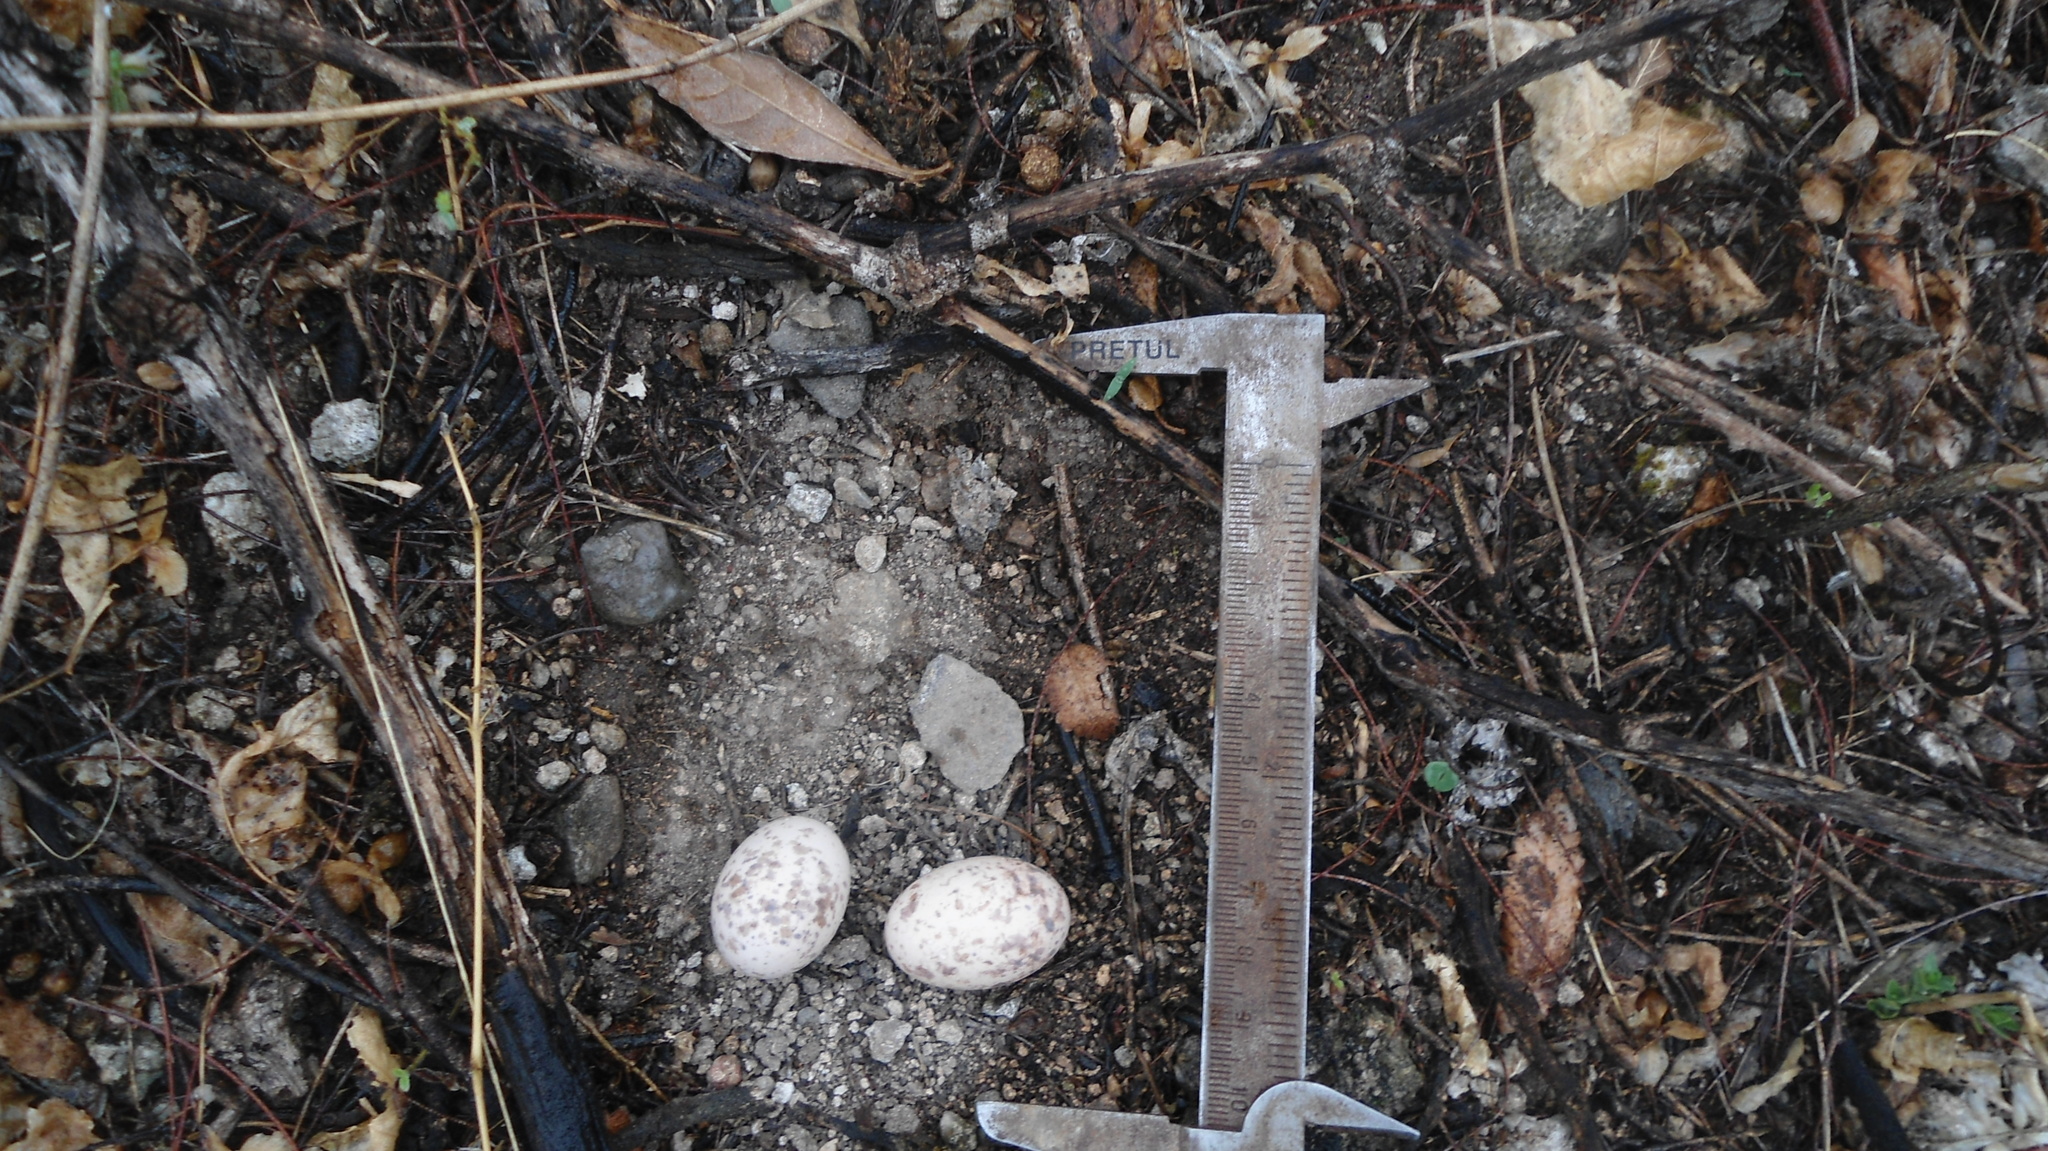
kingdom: Animalia
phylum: Chordata
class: Aves
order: Caprimulgiformes
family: Caprimulgidae
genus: Antrostomus
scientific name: Antrostomus ridgwayi
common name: Buff-collared nightjar
